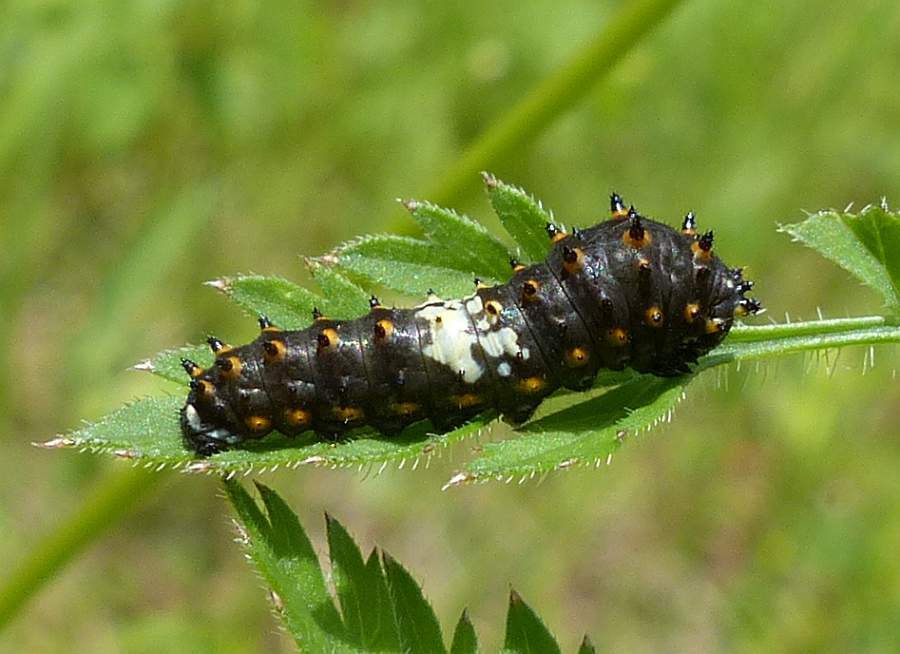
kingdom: Animalia
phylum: Arthropoda
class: Insecta
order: Lepidoptera
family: Papilionidae
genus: Papilio
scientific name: Papilio polyxenes
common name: Black swallowtail
